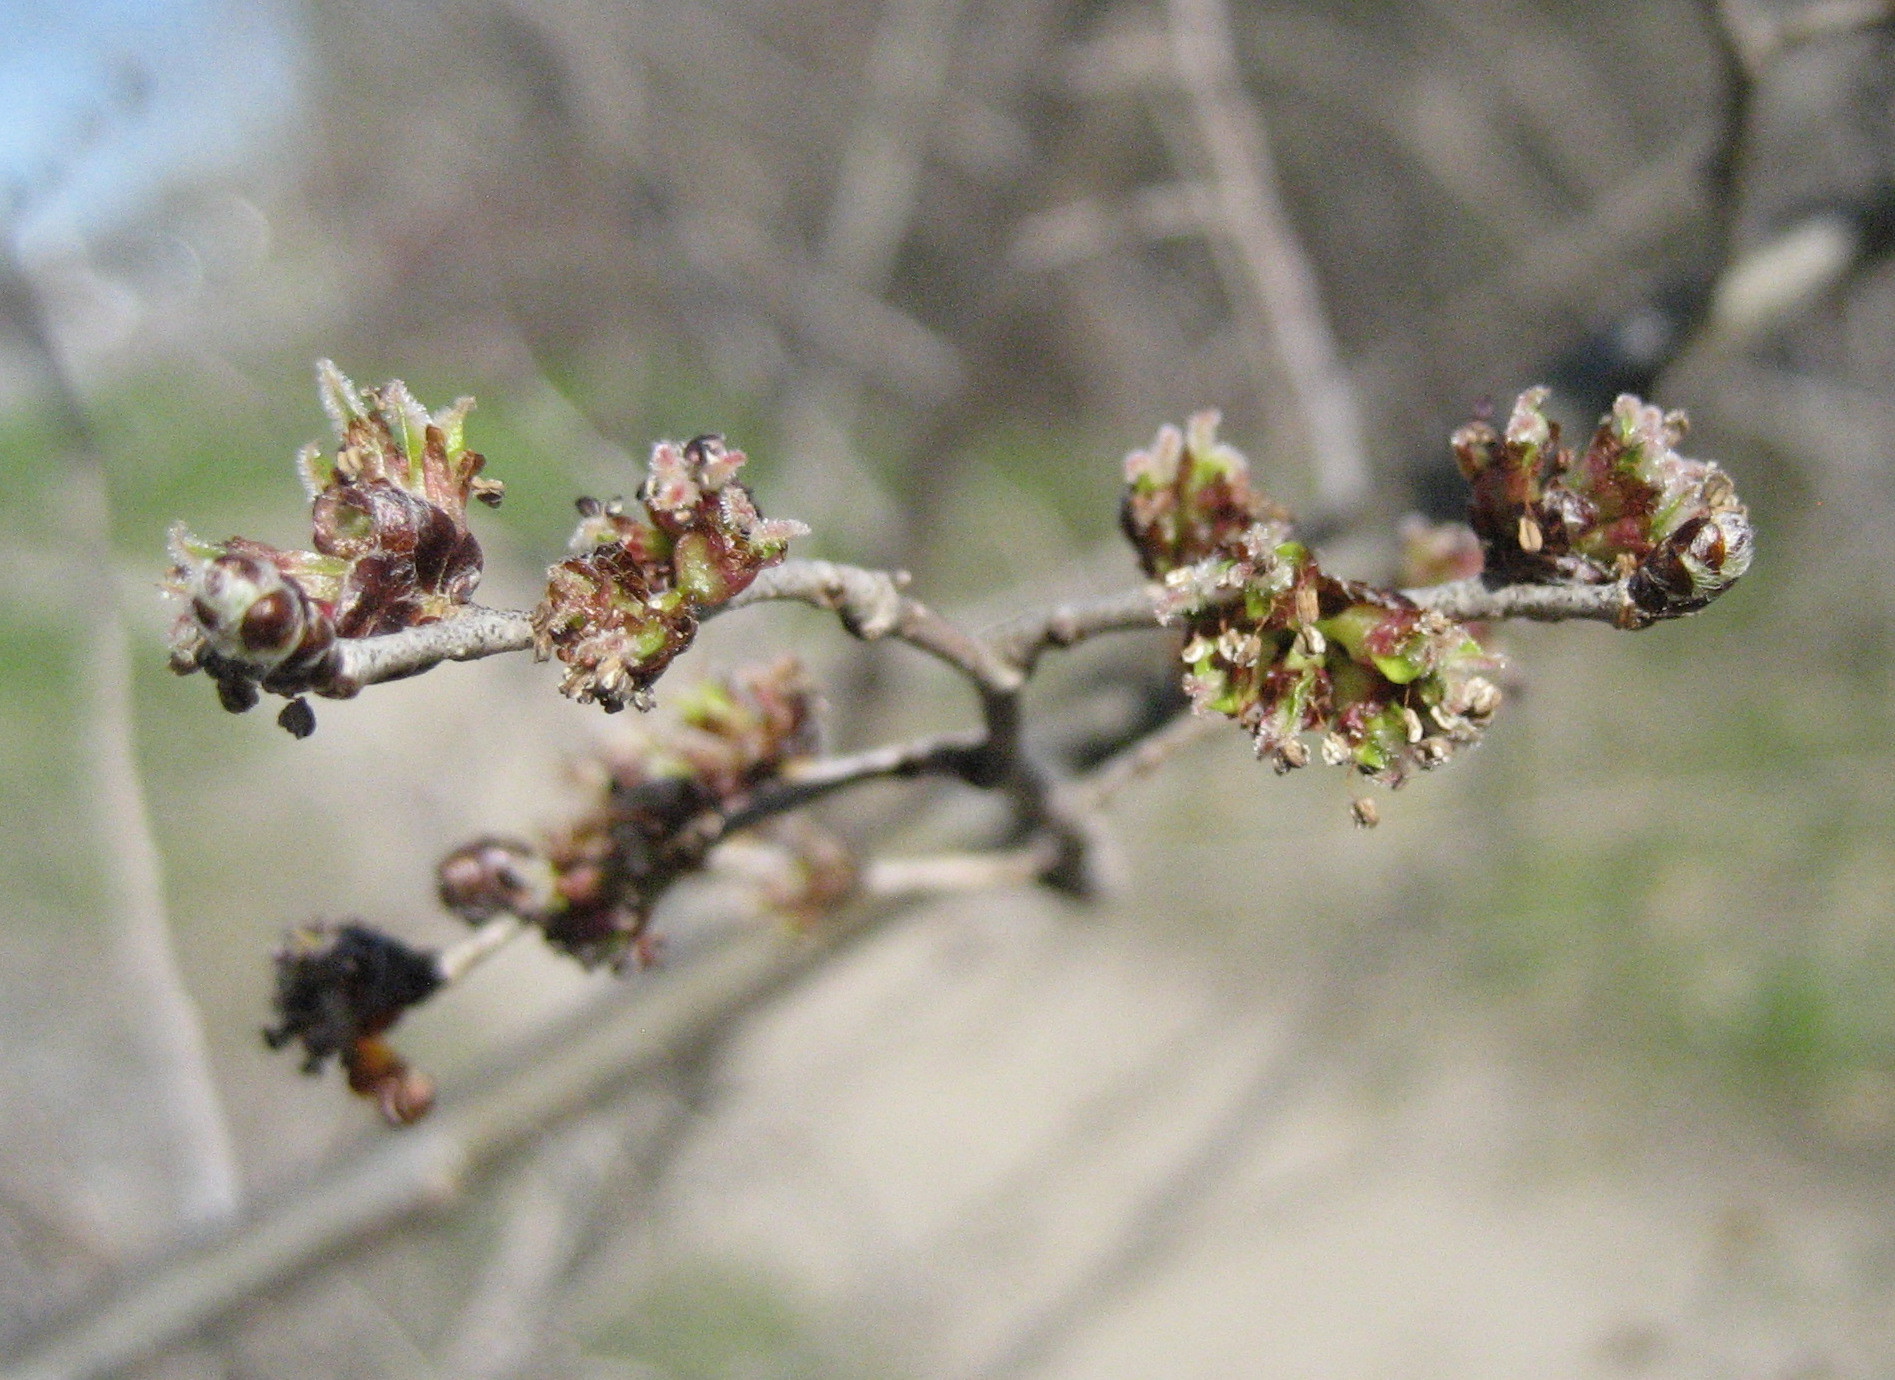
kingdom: Plantae
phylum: Tracheophyta
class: Magnoliopsida
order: Rosales
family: Ulmaceae
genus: Ulmus
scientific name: Ulmus pumila
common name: Siberian elm
